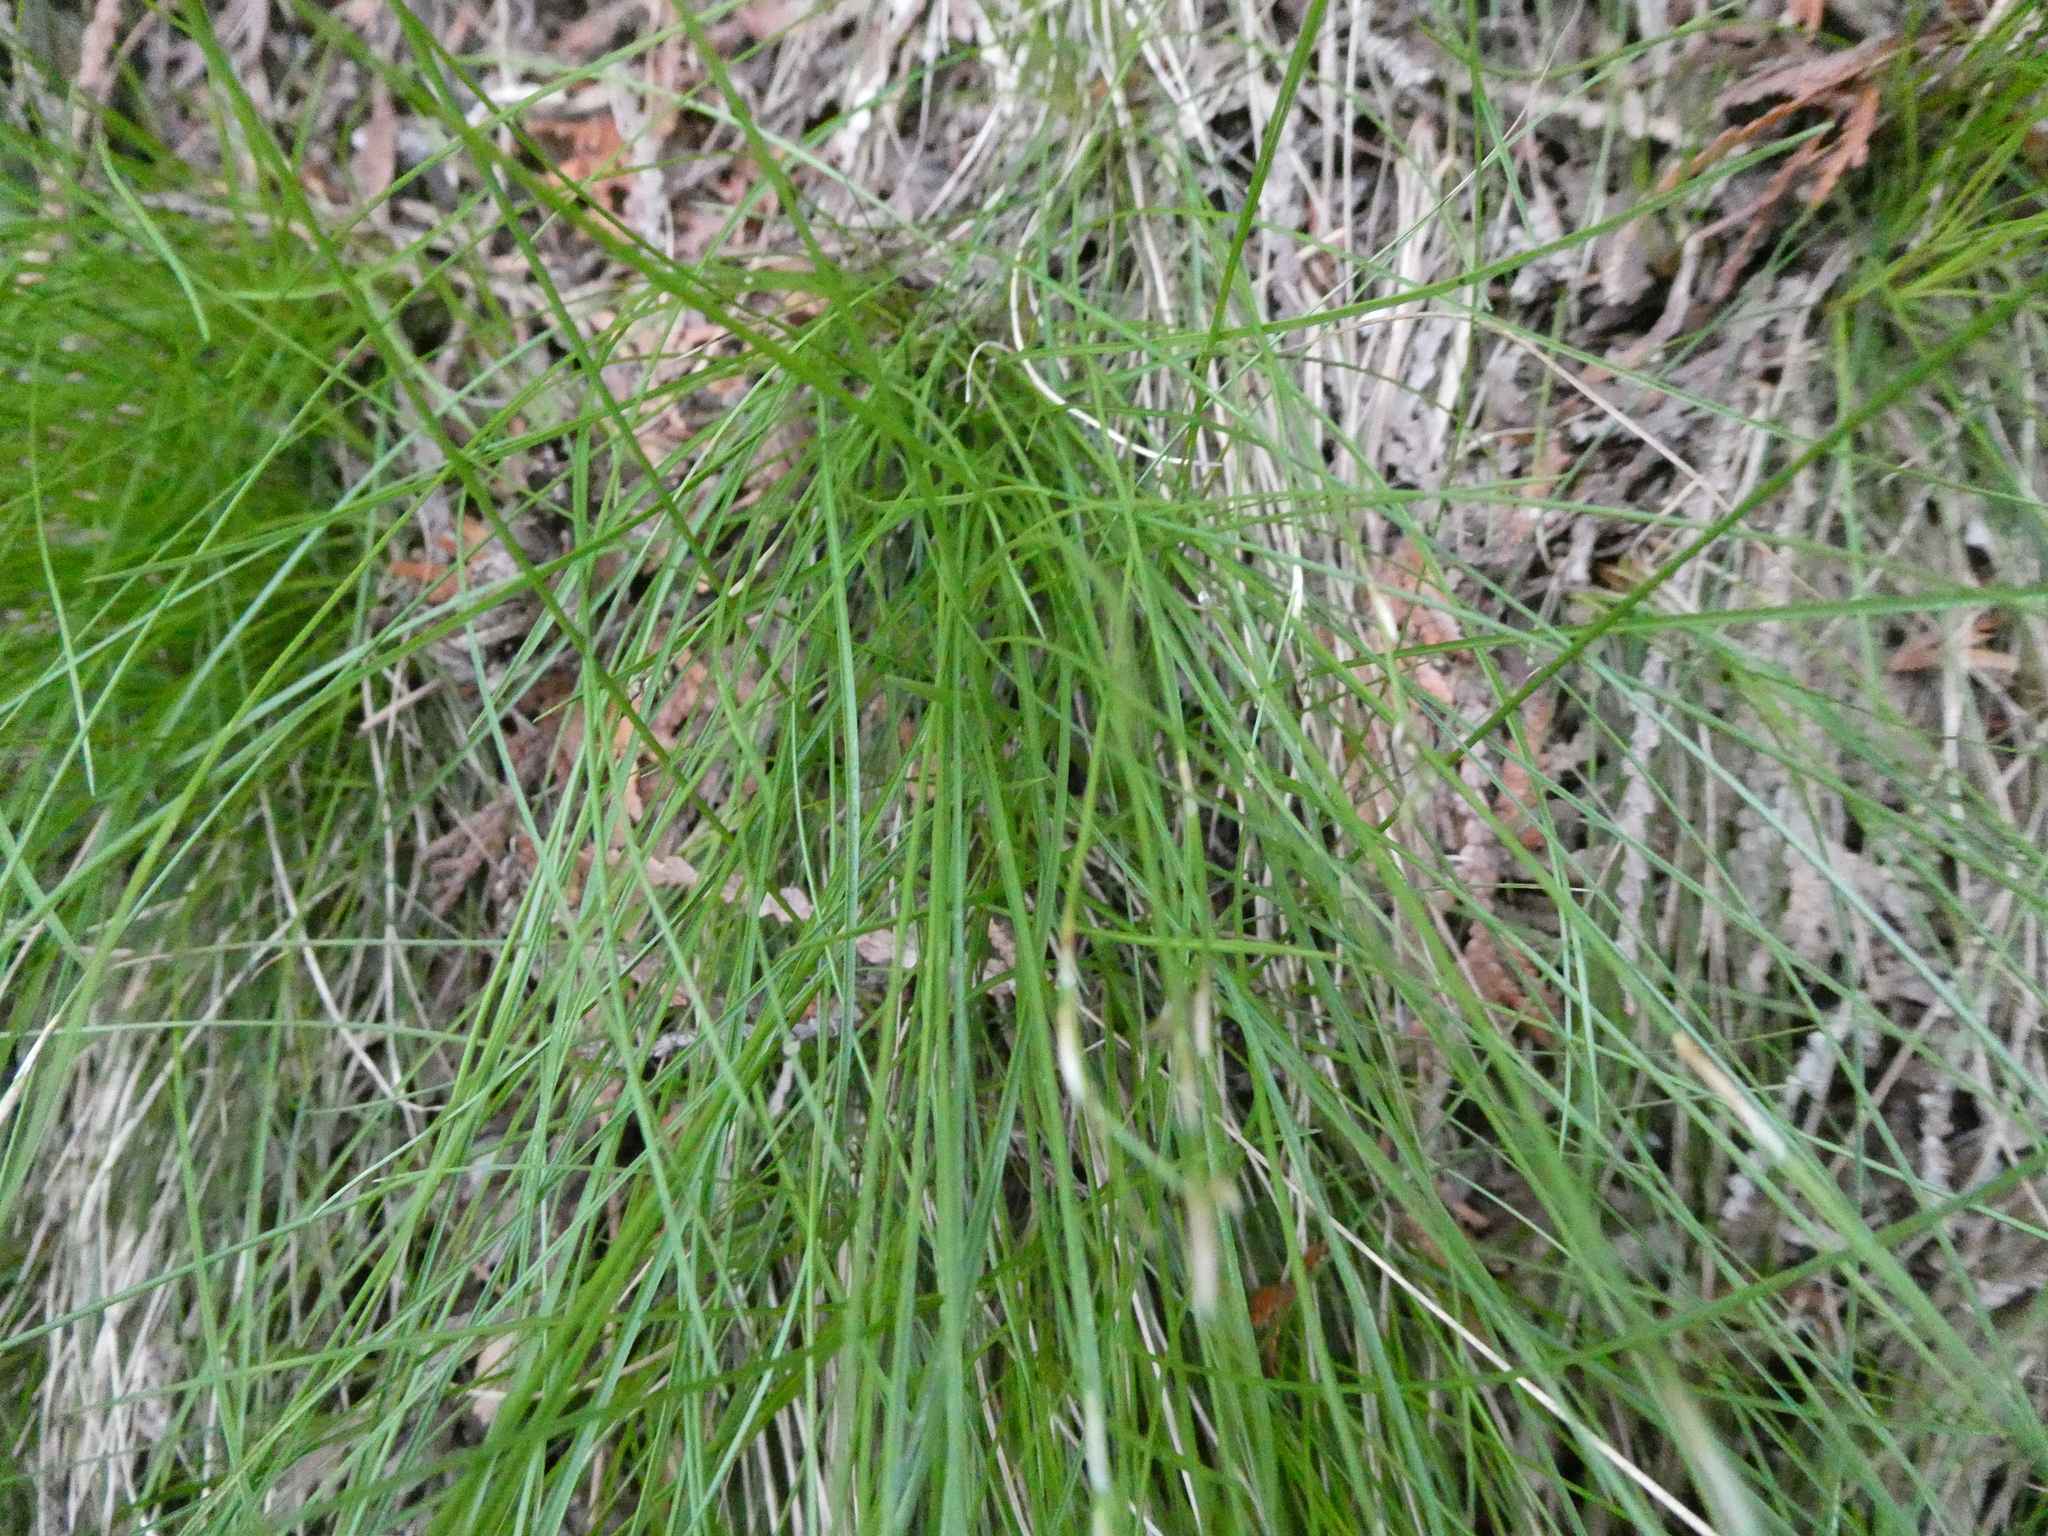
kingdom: Plantae
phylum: Tracheophyta
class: Liliopsida
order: Poales
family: Cyperaceae
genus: Carex
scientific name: Carex eburnea
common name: Bristle-leaved sedge
